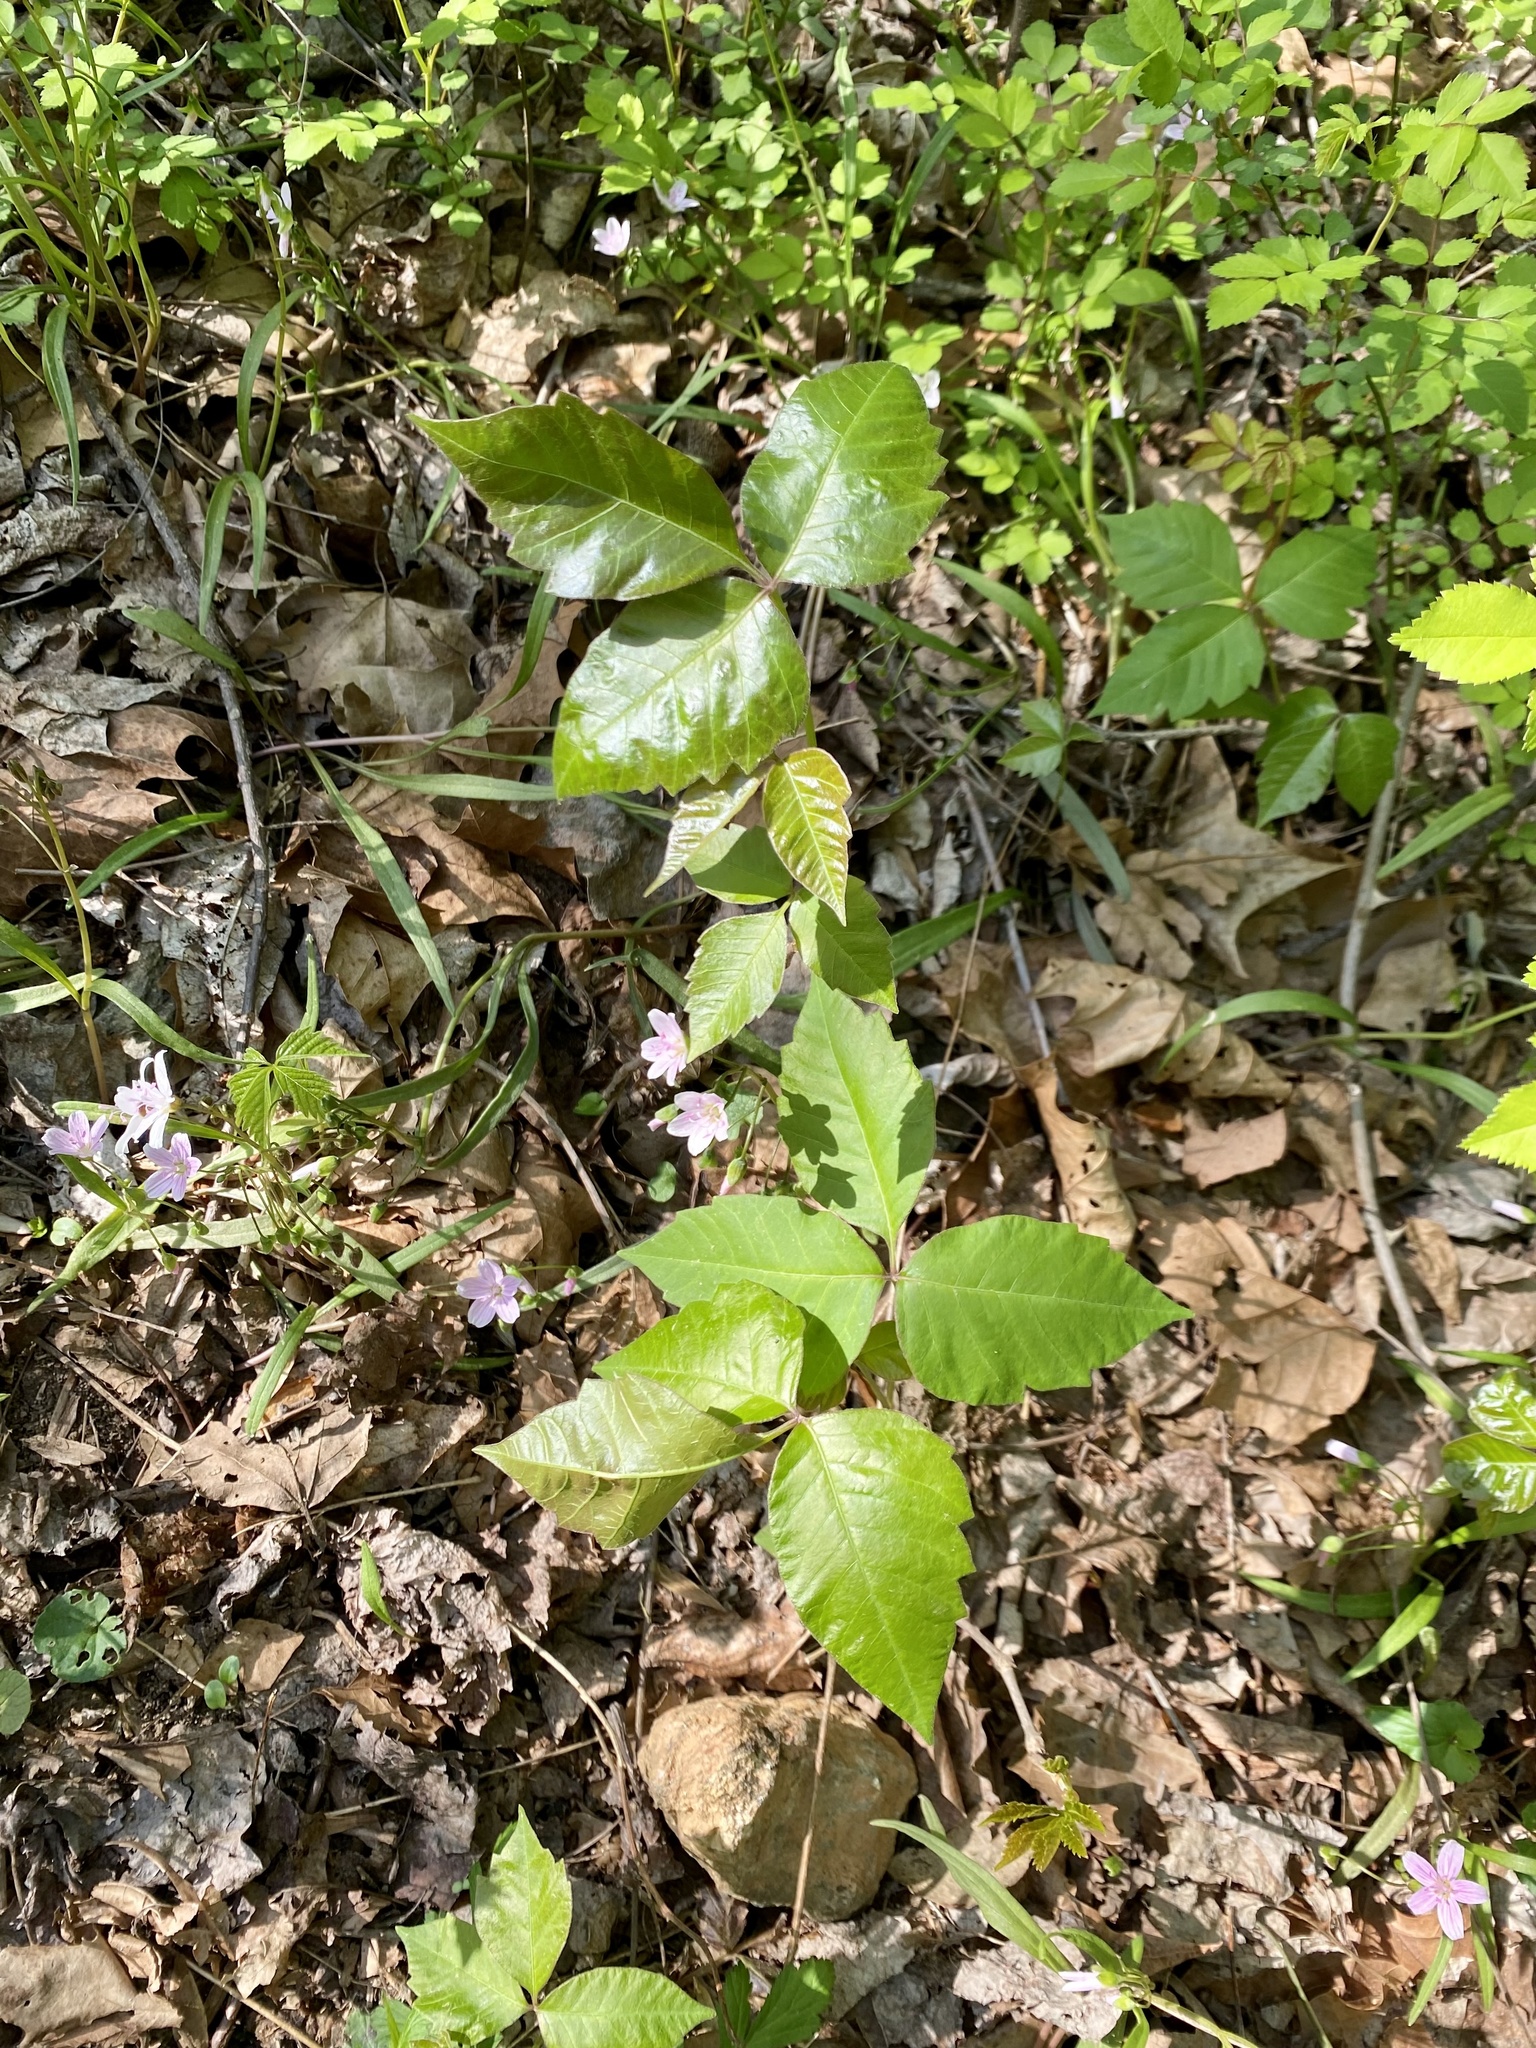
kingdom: Plantae
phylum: Tracheophyta
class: Magnoliopsida
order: Sapindales
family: Anacardiaceae
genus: Toxicodendron
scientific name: Toxicodendron radicans
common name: Poison ivy
